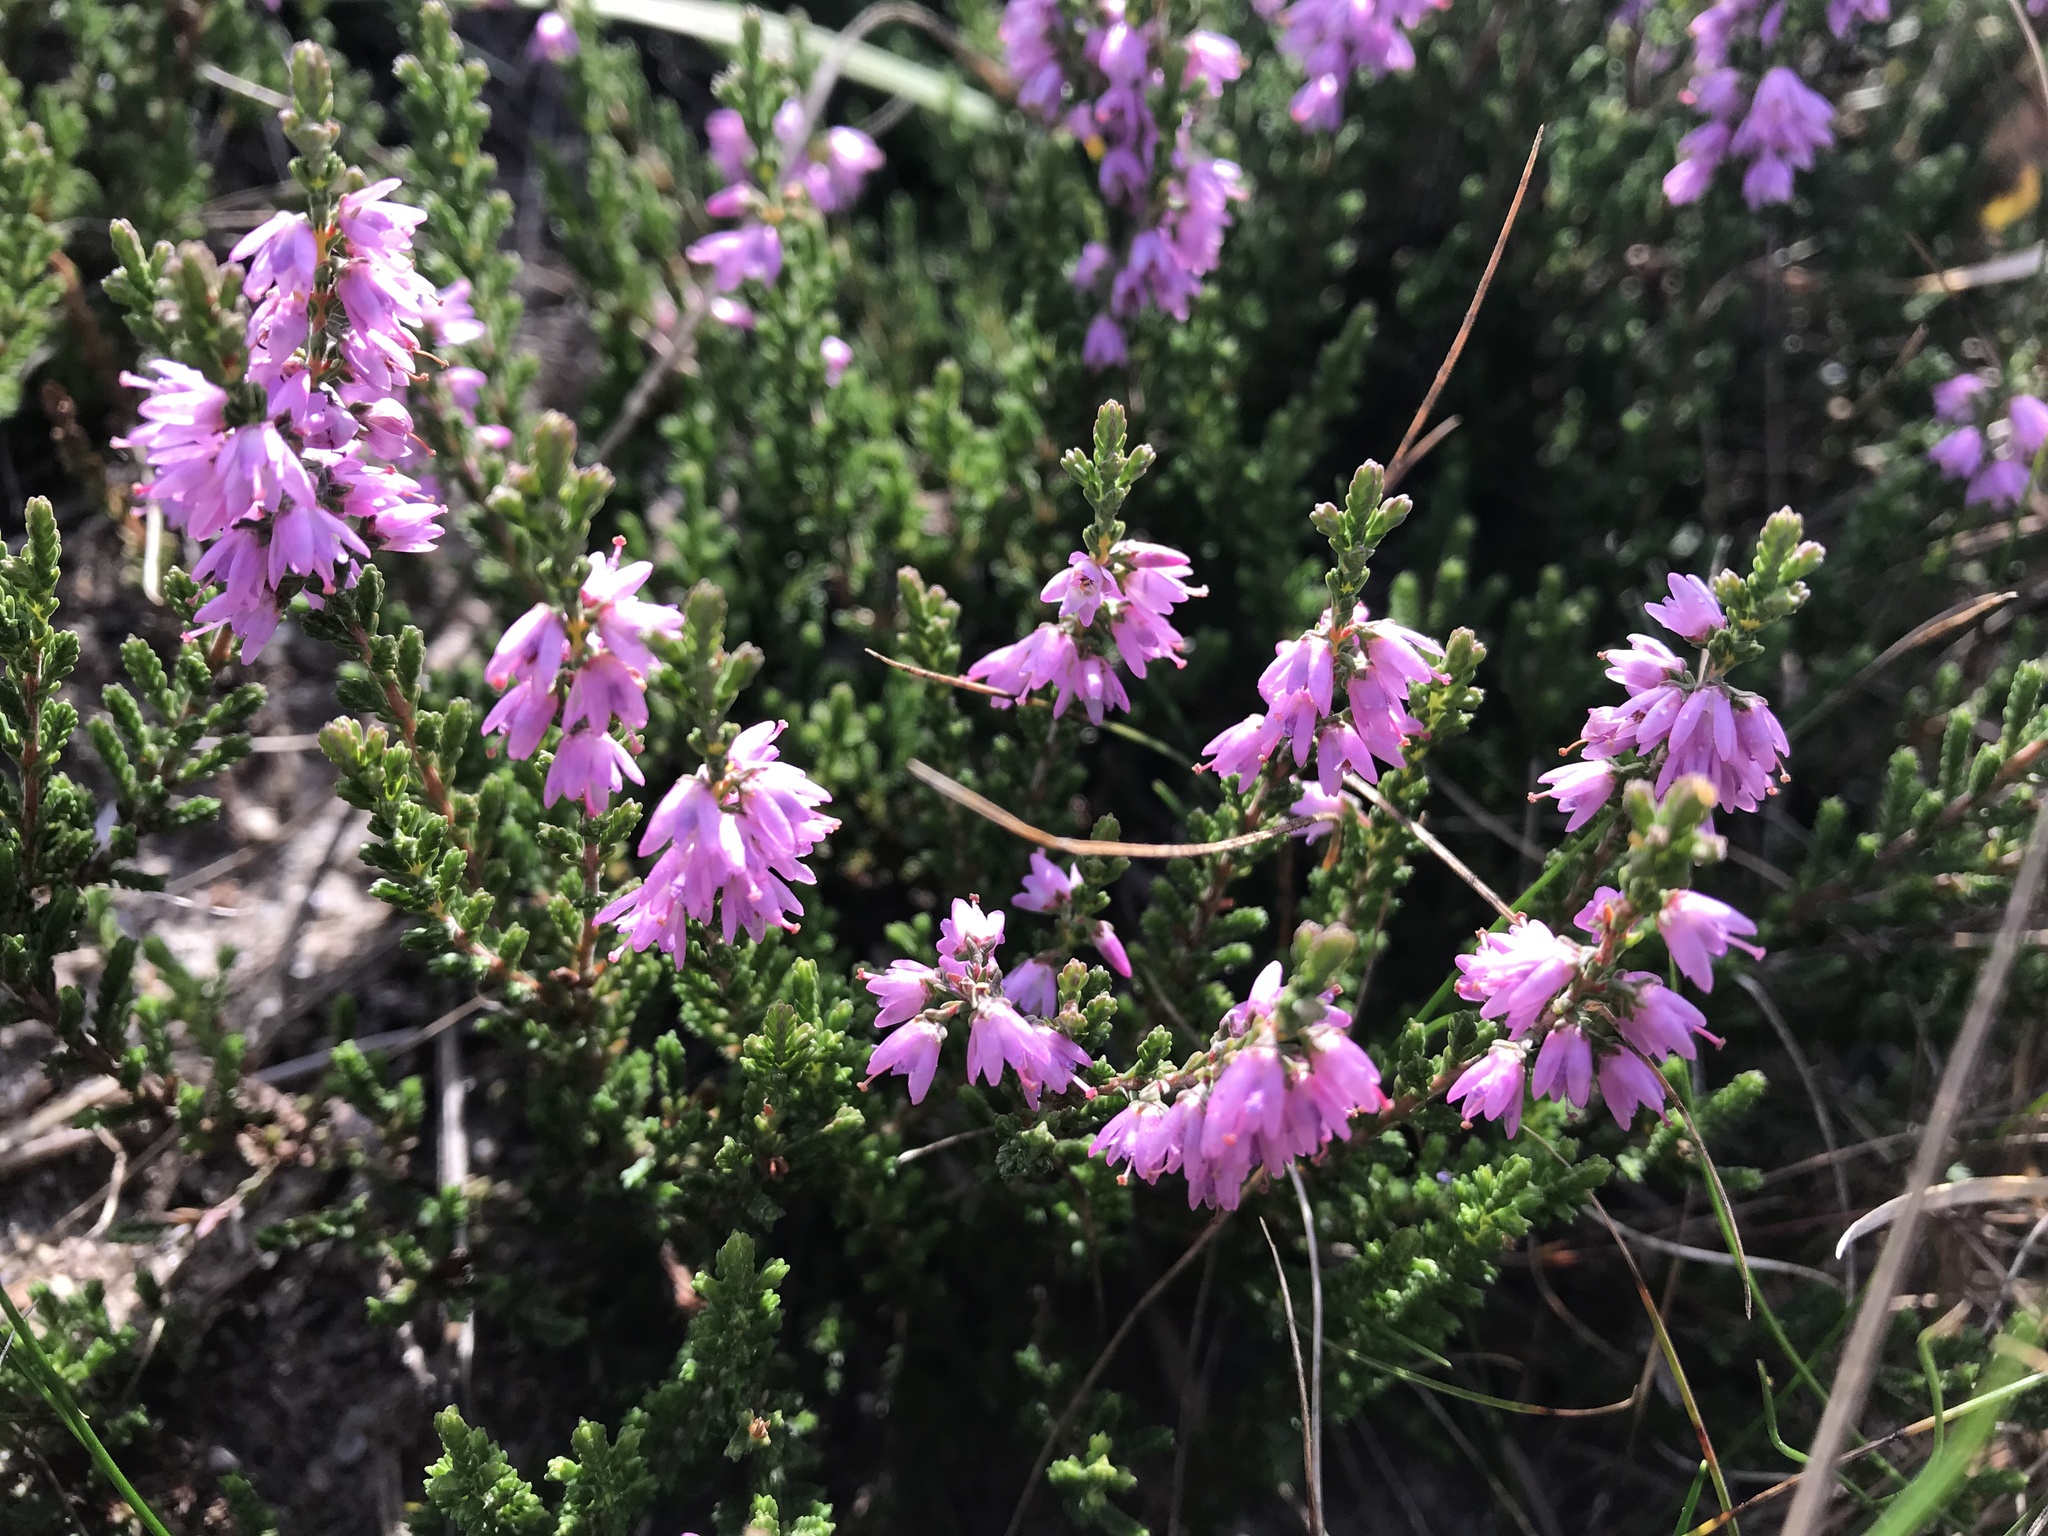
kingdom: Plantae
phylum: Tracheophyta
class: Magnoliopsida
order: Ericales
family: Ericaceae
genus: Calluna
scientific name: Calluna vulgaris
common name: Heather
